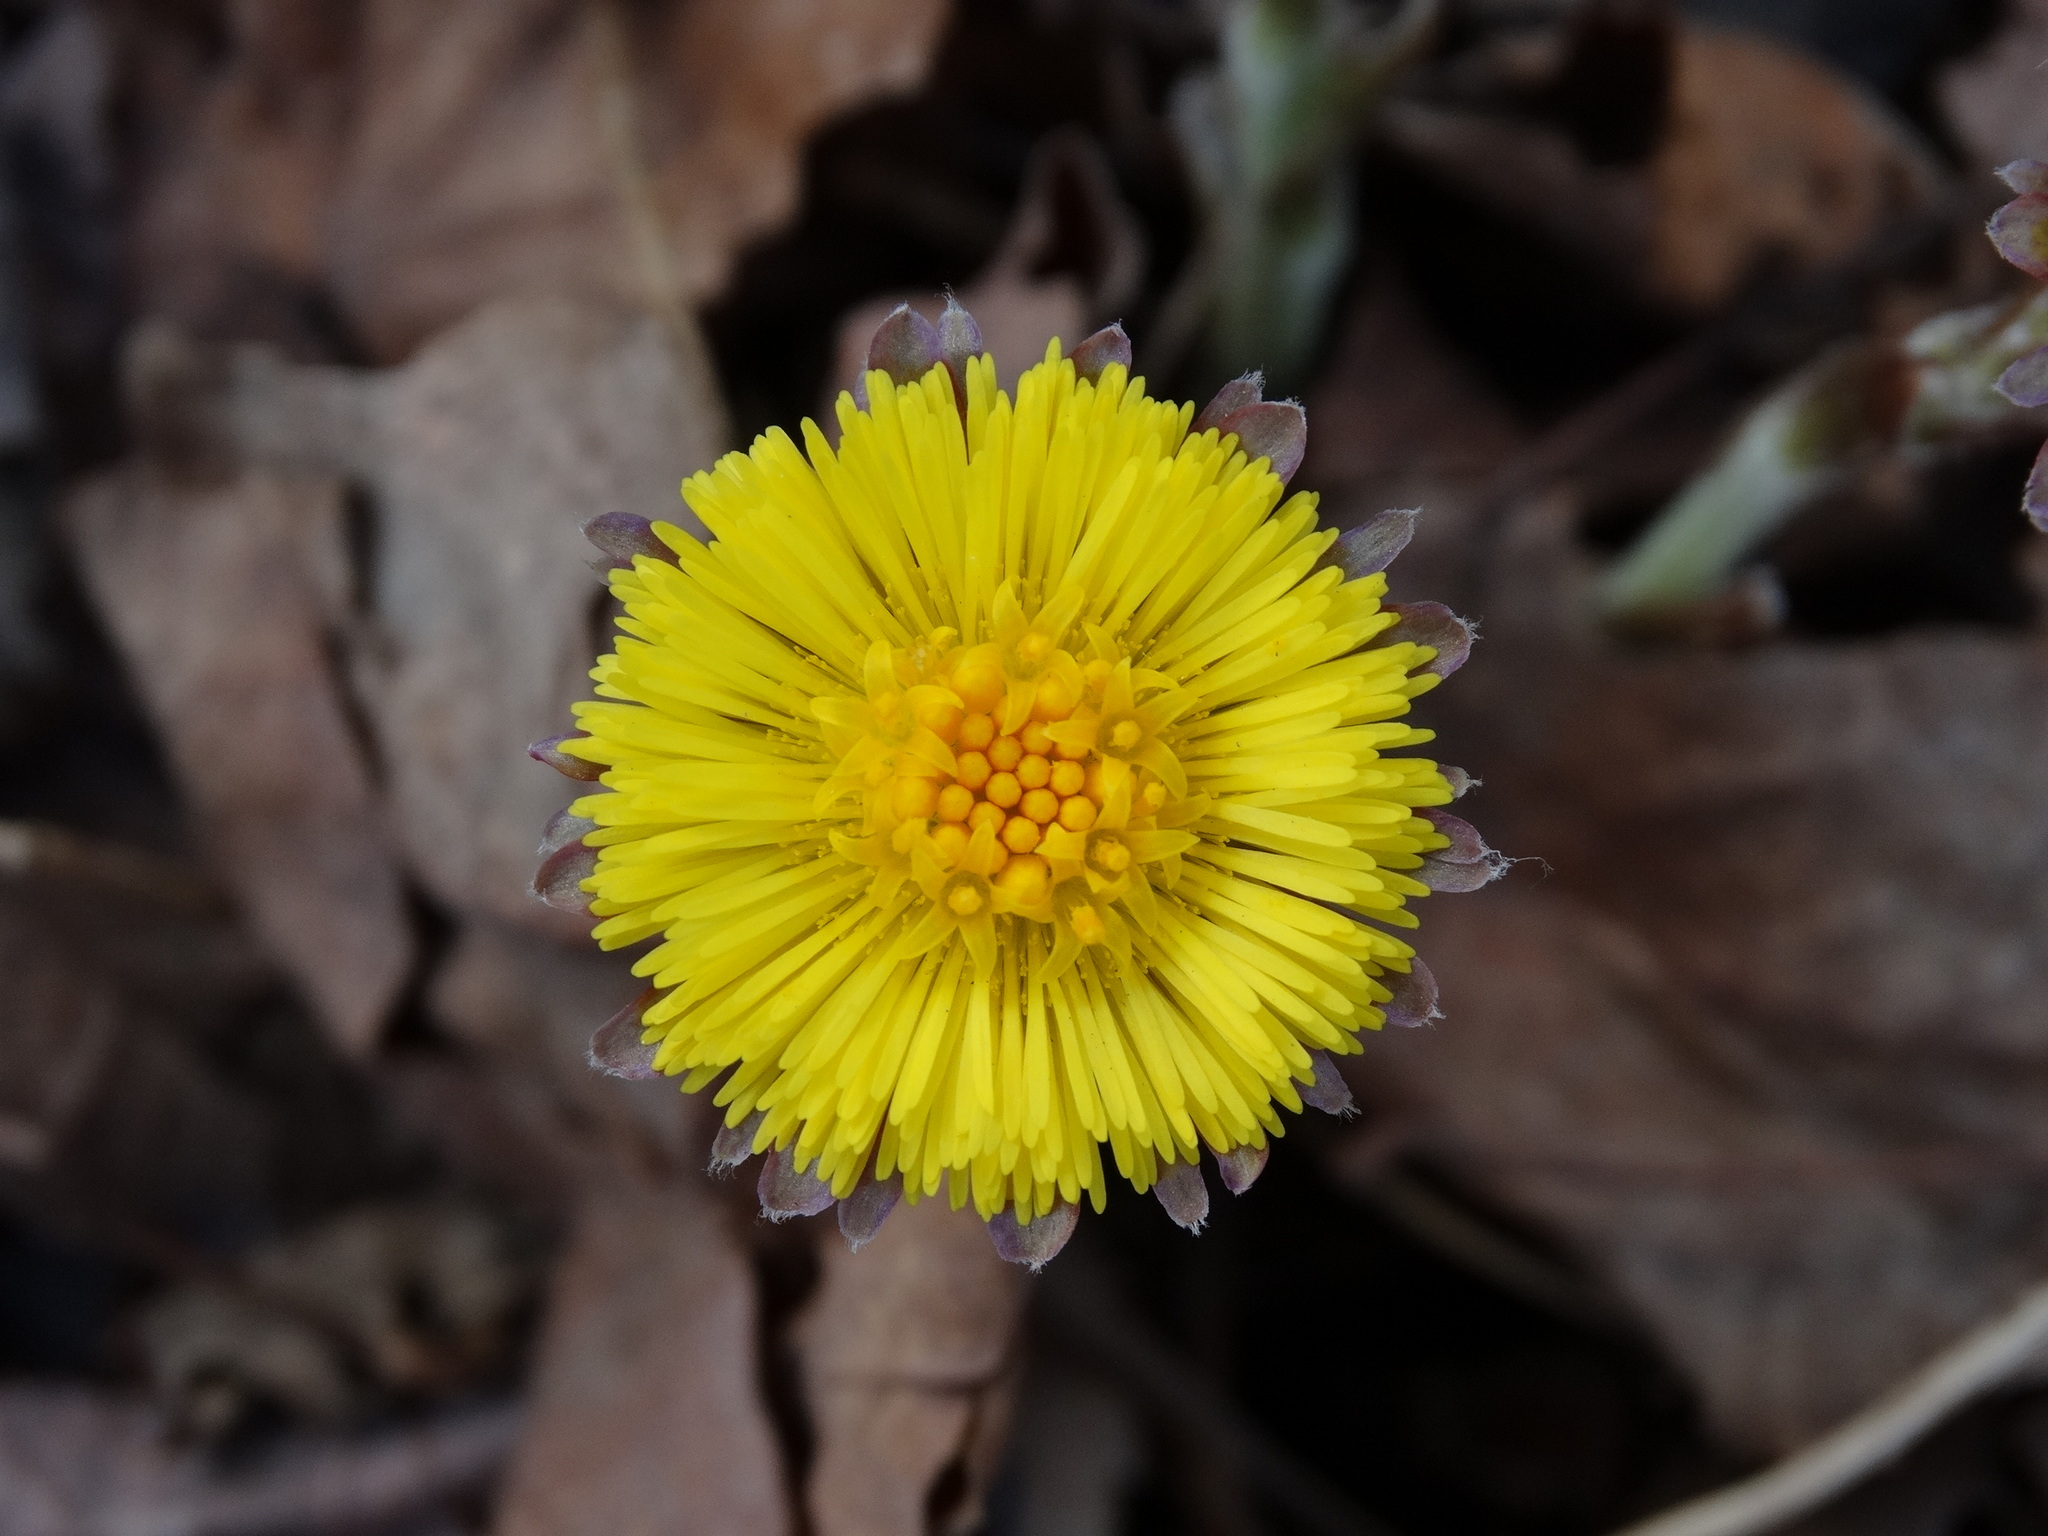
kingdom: Plantae
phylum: Tracheophyta
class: Magnoliopsida
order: Asterales
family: Asteraceae
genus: Tussilago
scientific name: Tussilago farfara
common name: Coltsfoot
